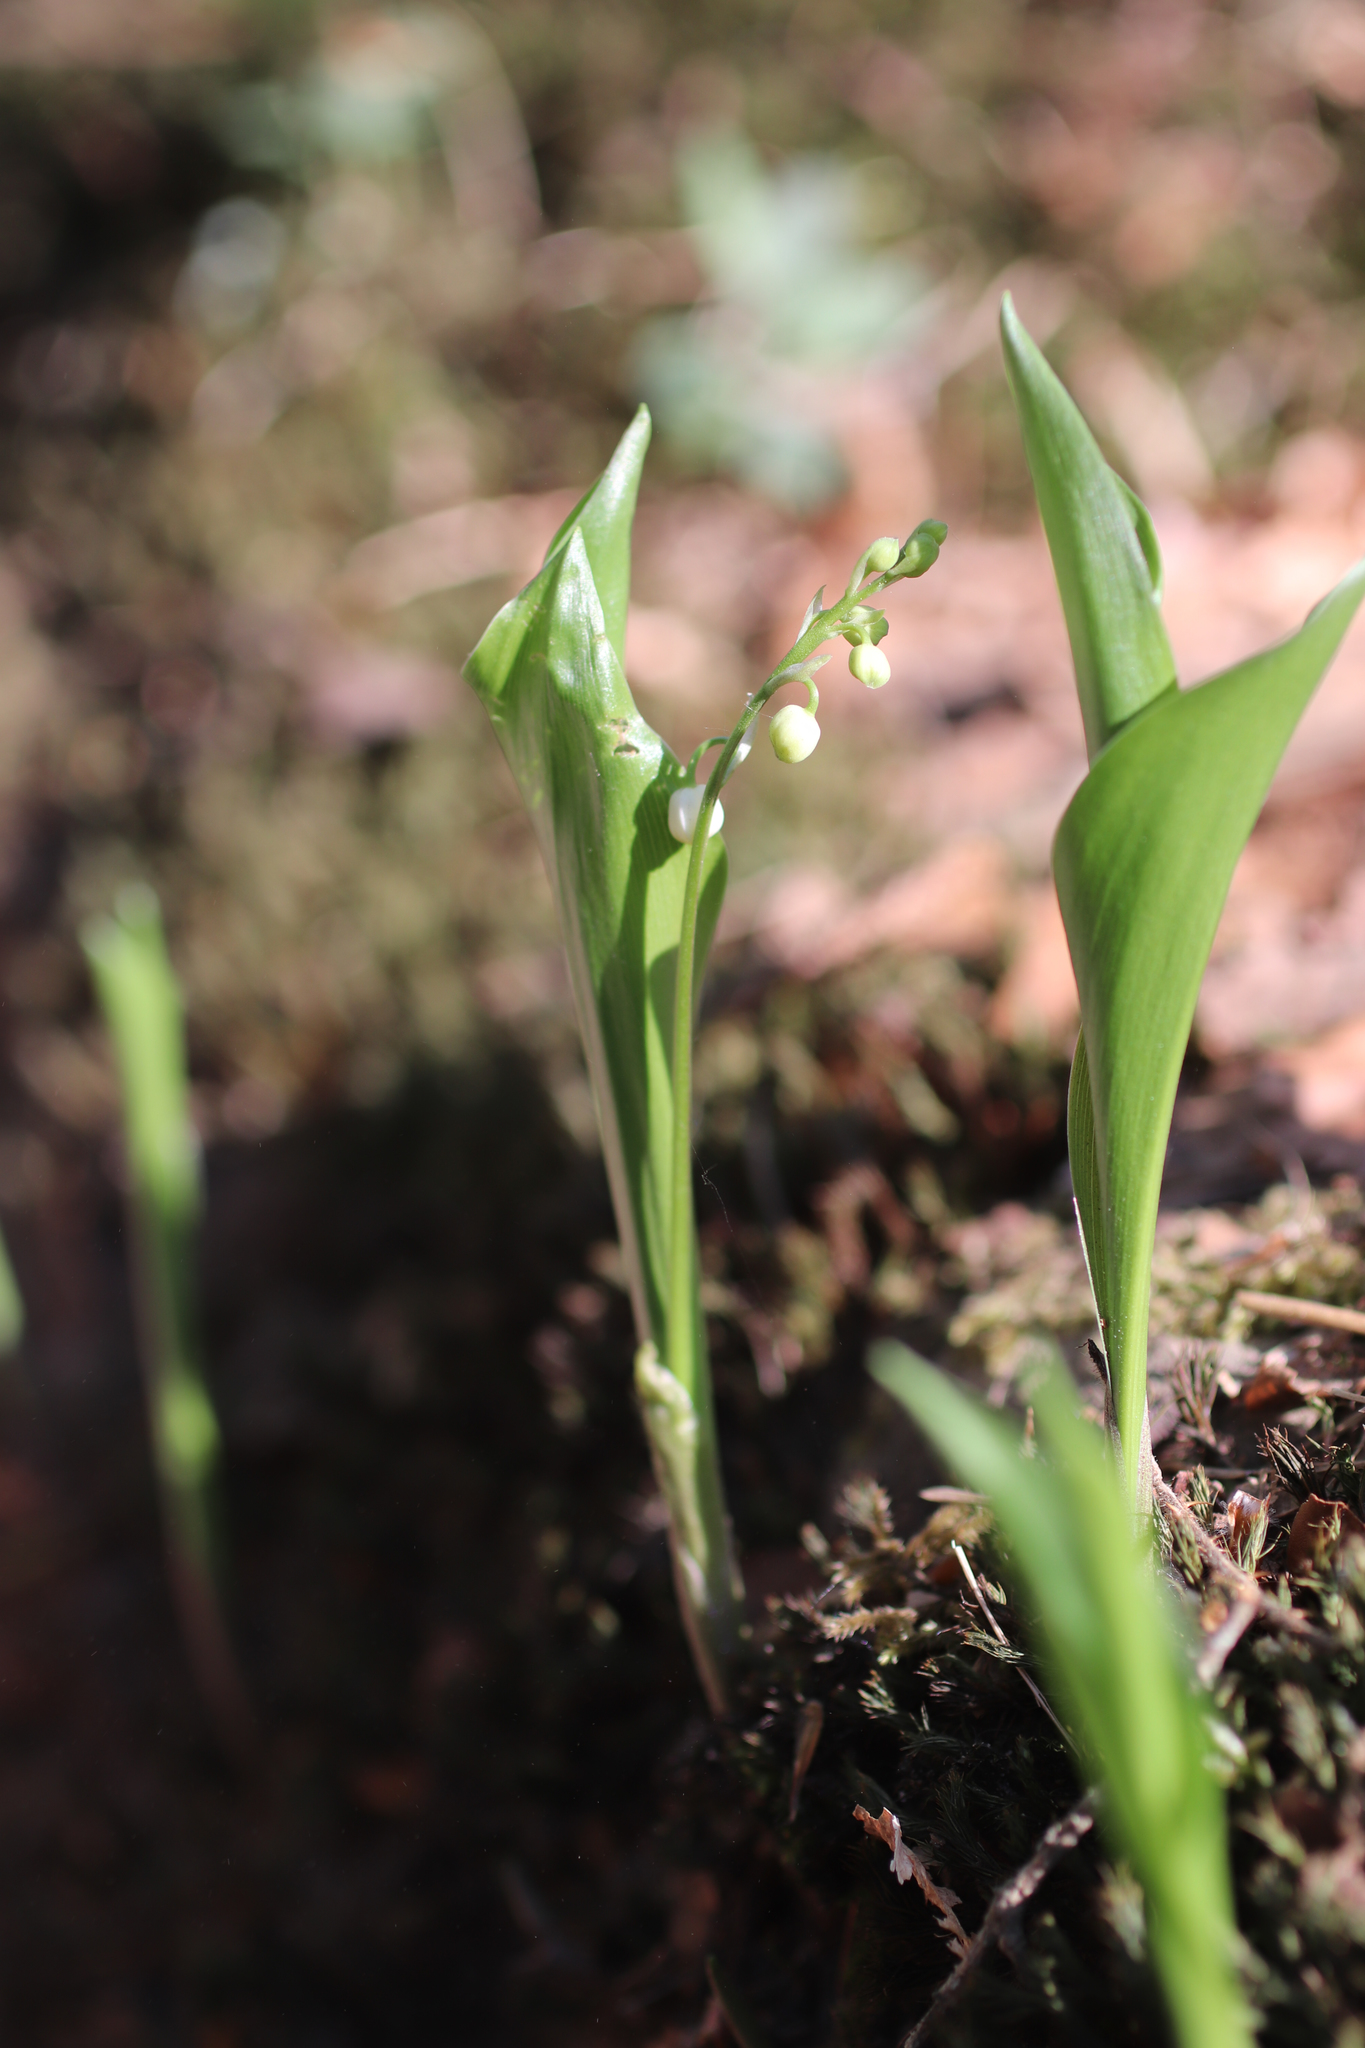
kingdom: Plantae
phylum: Tracheophyta
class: Liliopsida
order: Asparagales
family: Asparagaceae
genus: Convallaria
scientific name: Convallaria majalis
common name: Lily-of-the-valley
